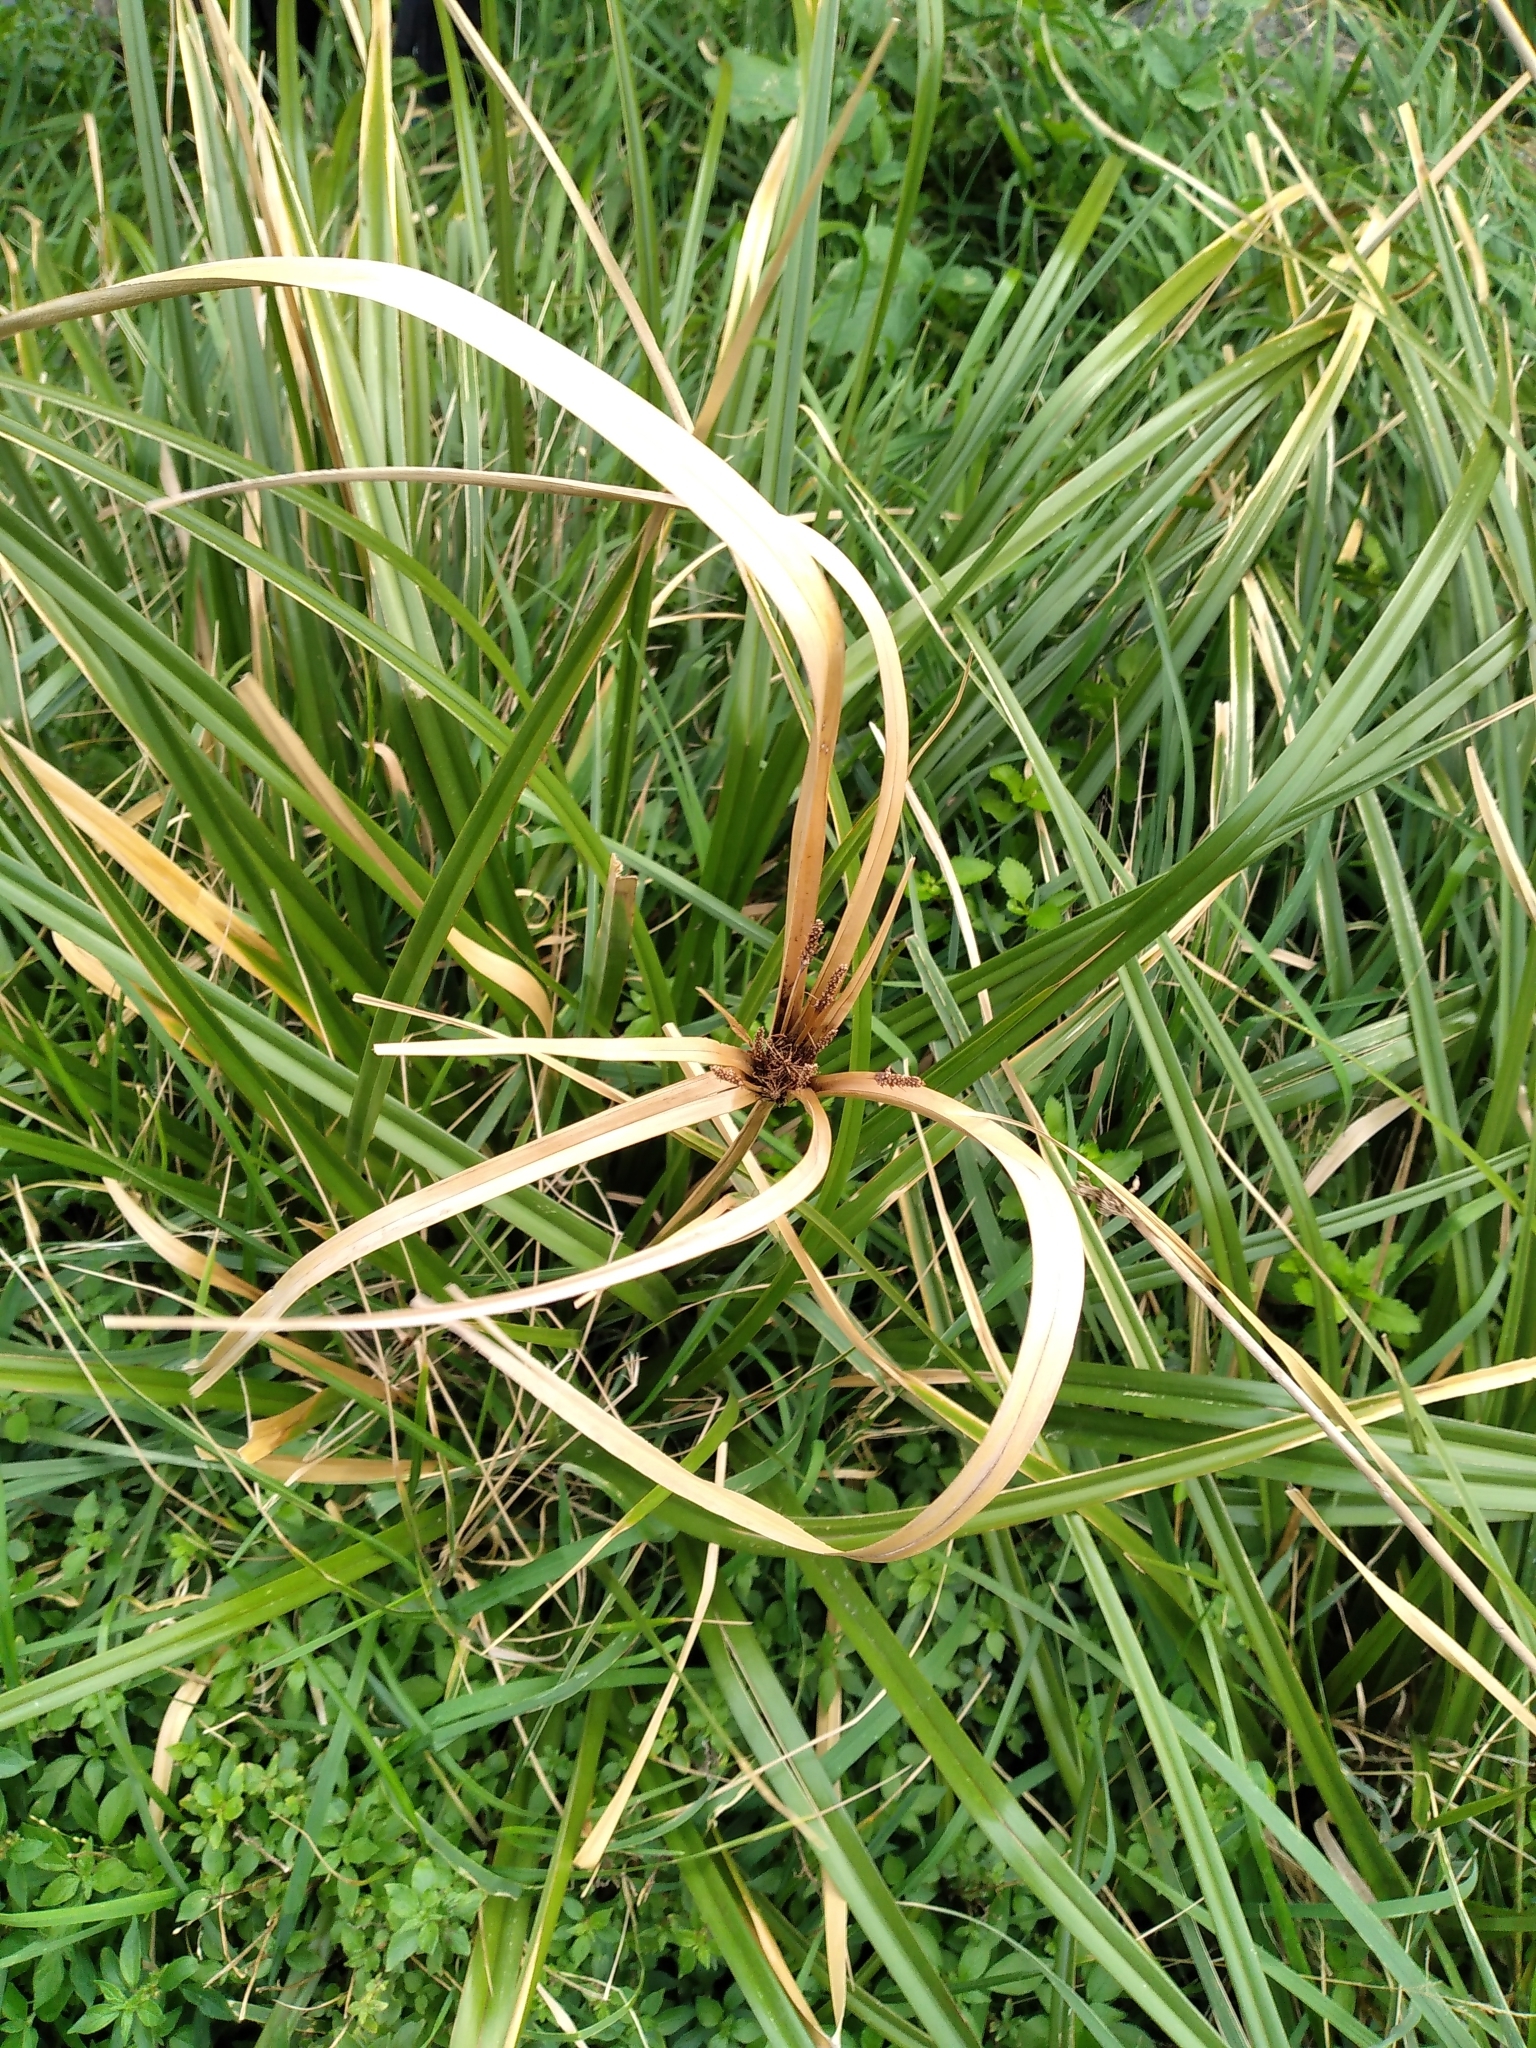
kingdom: Plantae
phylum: Tracheophyta
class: Liliopsida
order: Poales
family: Cyperaceae
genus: Cyperus
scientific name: Cyperus ustulatus
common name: Giant umbrella-sedge
